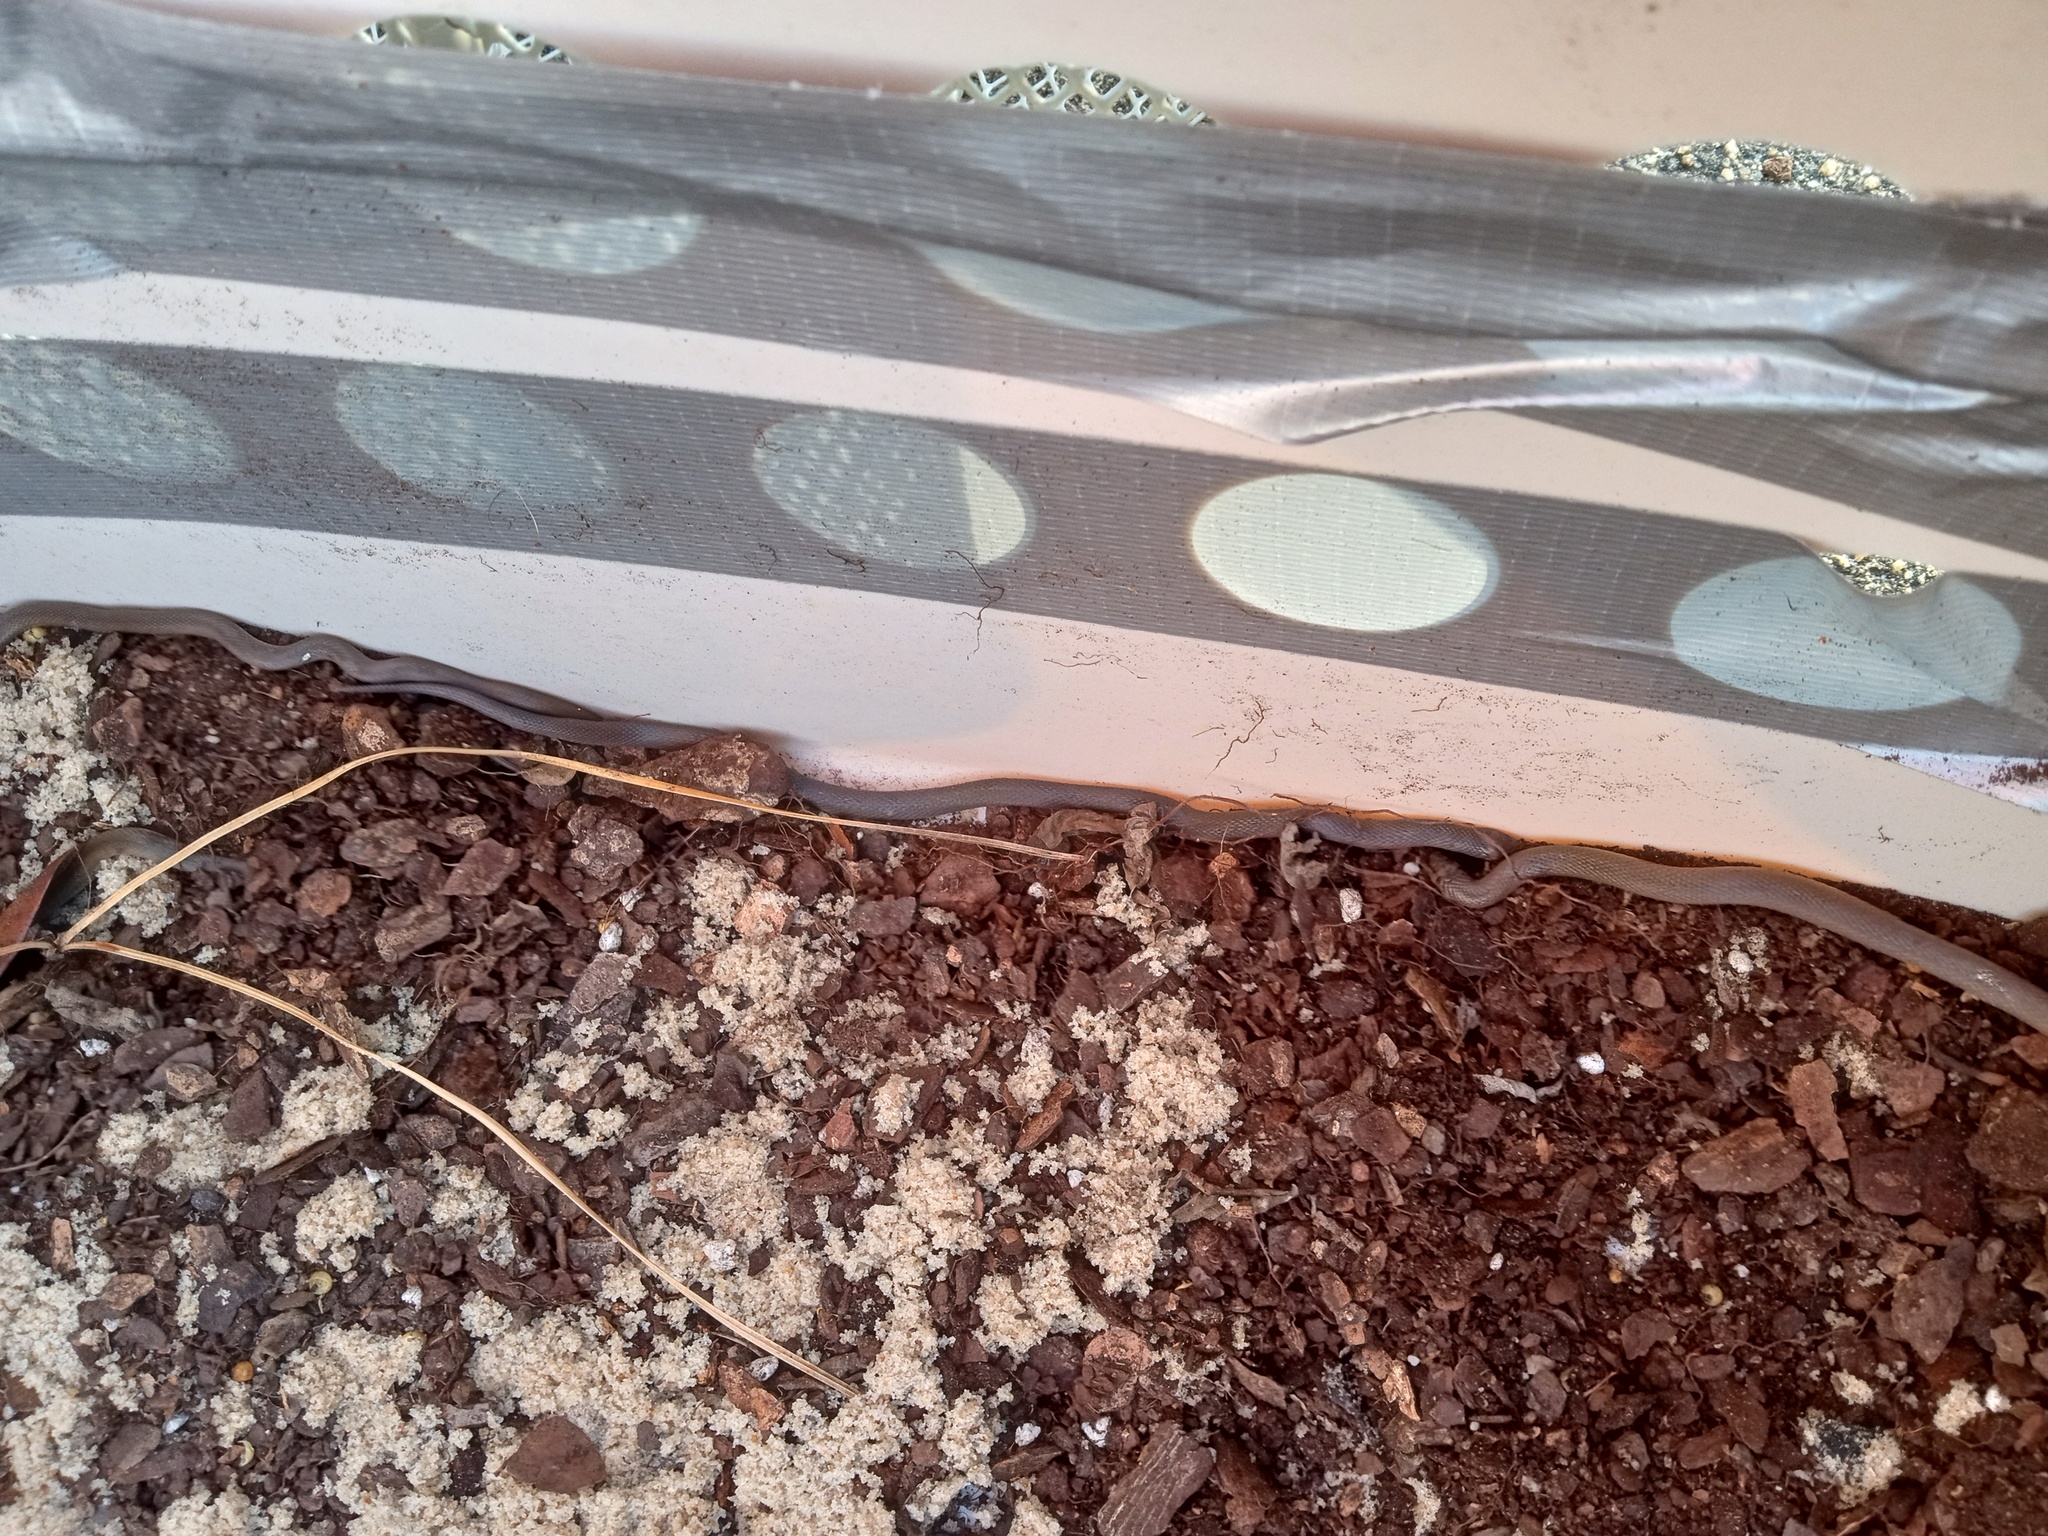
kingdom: Animalia
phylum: Chordata
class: Squamata
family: Colubridae
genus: Haldea
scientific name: Haldea striatula
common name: Rough earth snake
